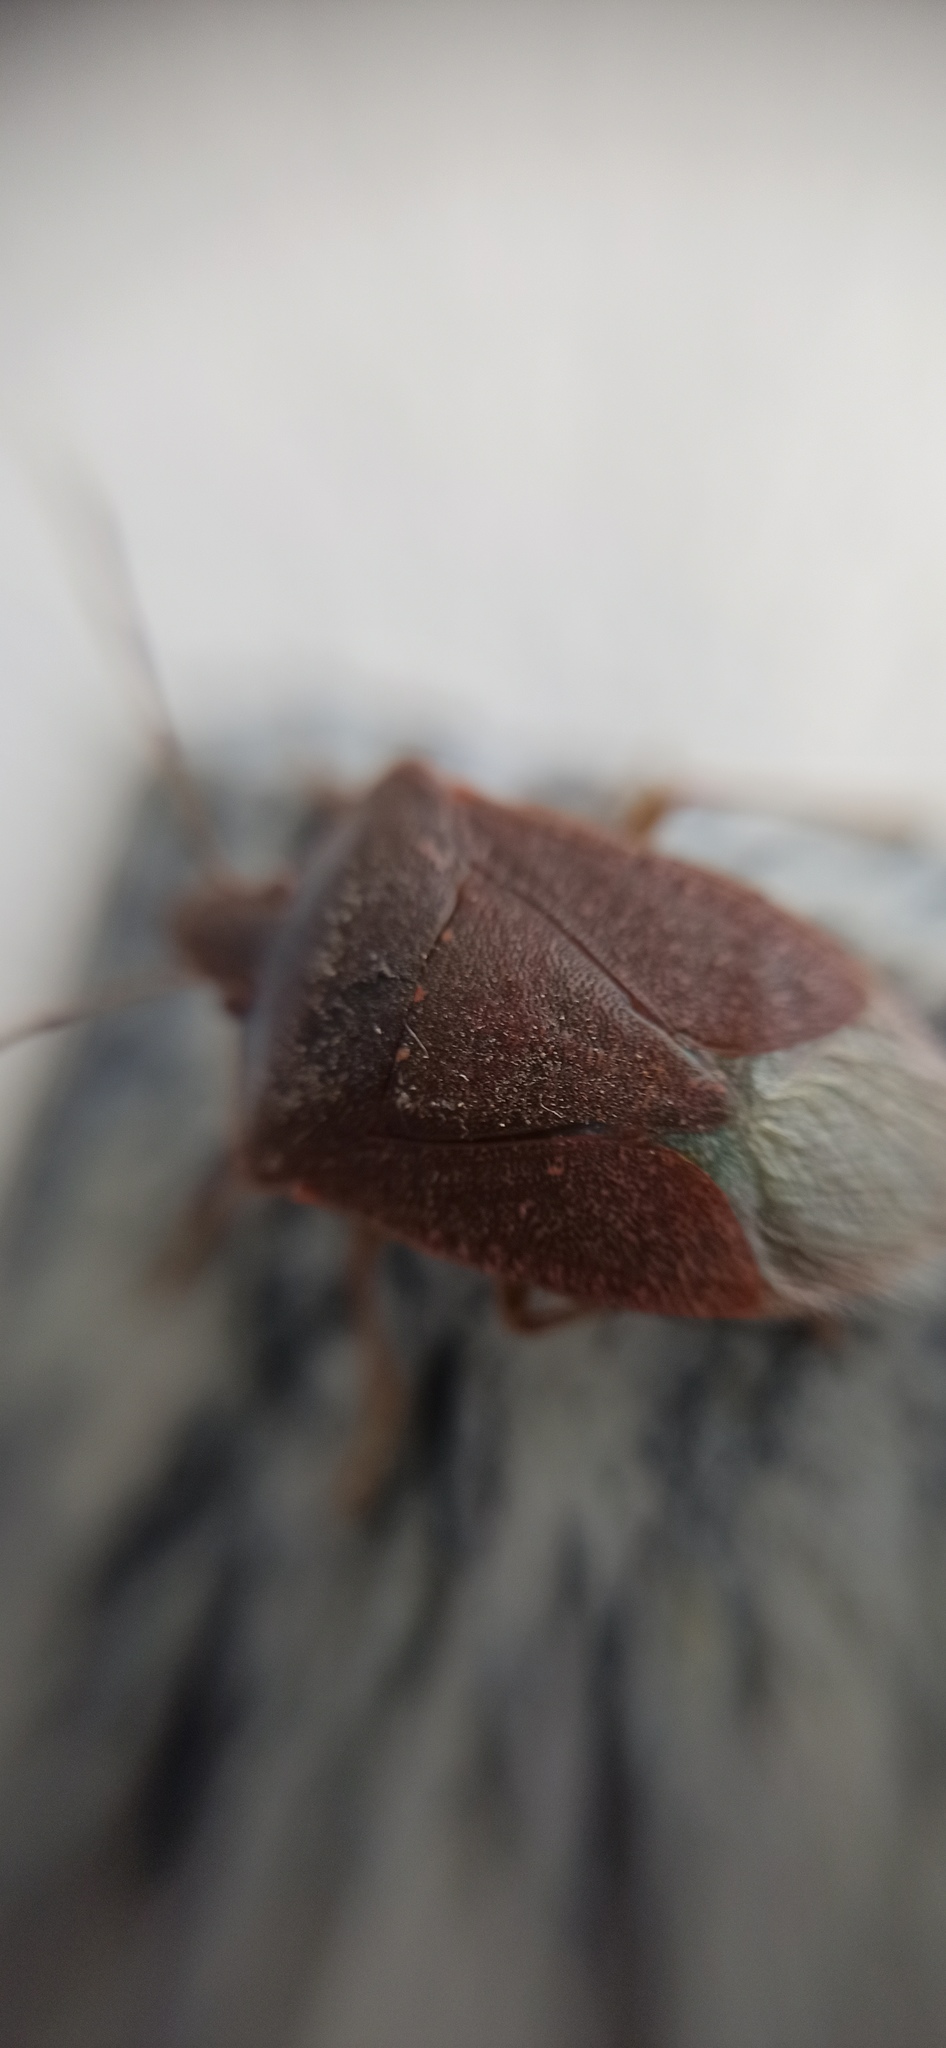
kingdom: Animalia
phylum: Arthropoda
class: Insecta
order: Hemiptera
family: Pentatomidae
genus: Nezara
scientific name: Nezara viridula
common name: Southern green stink bug
